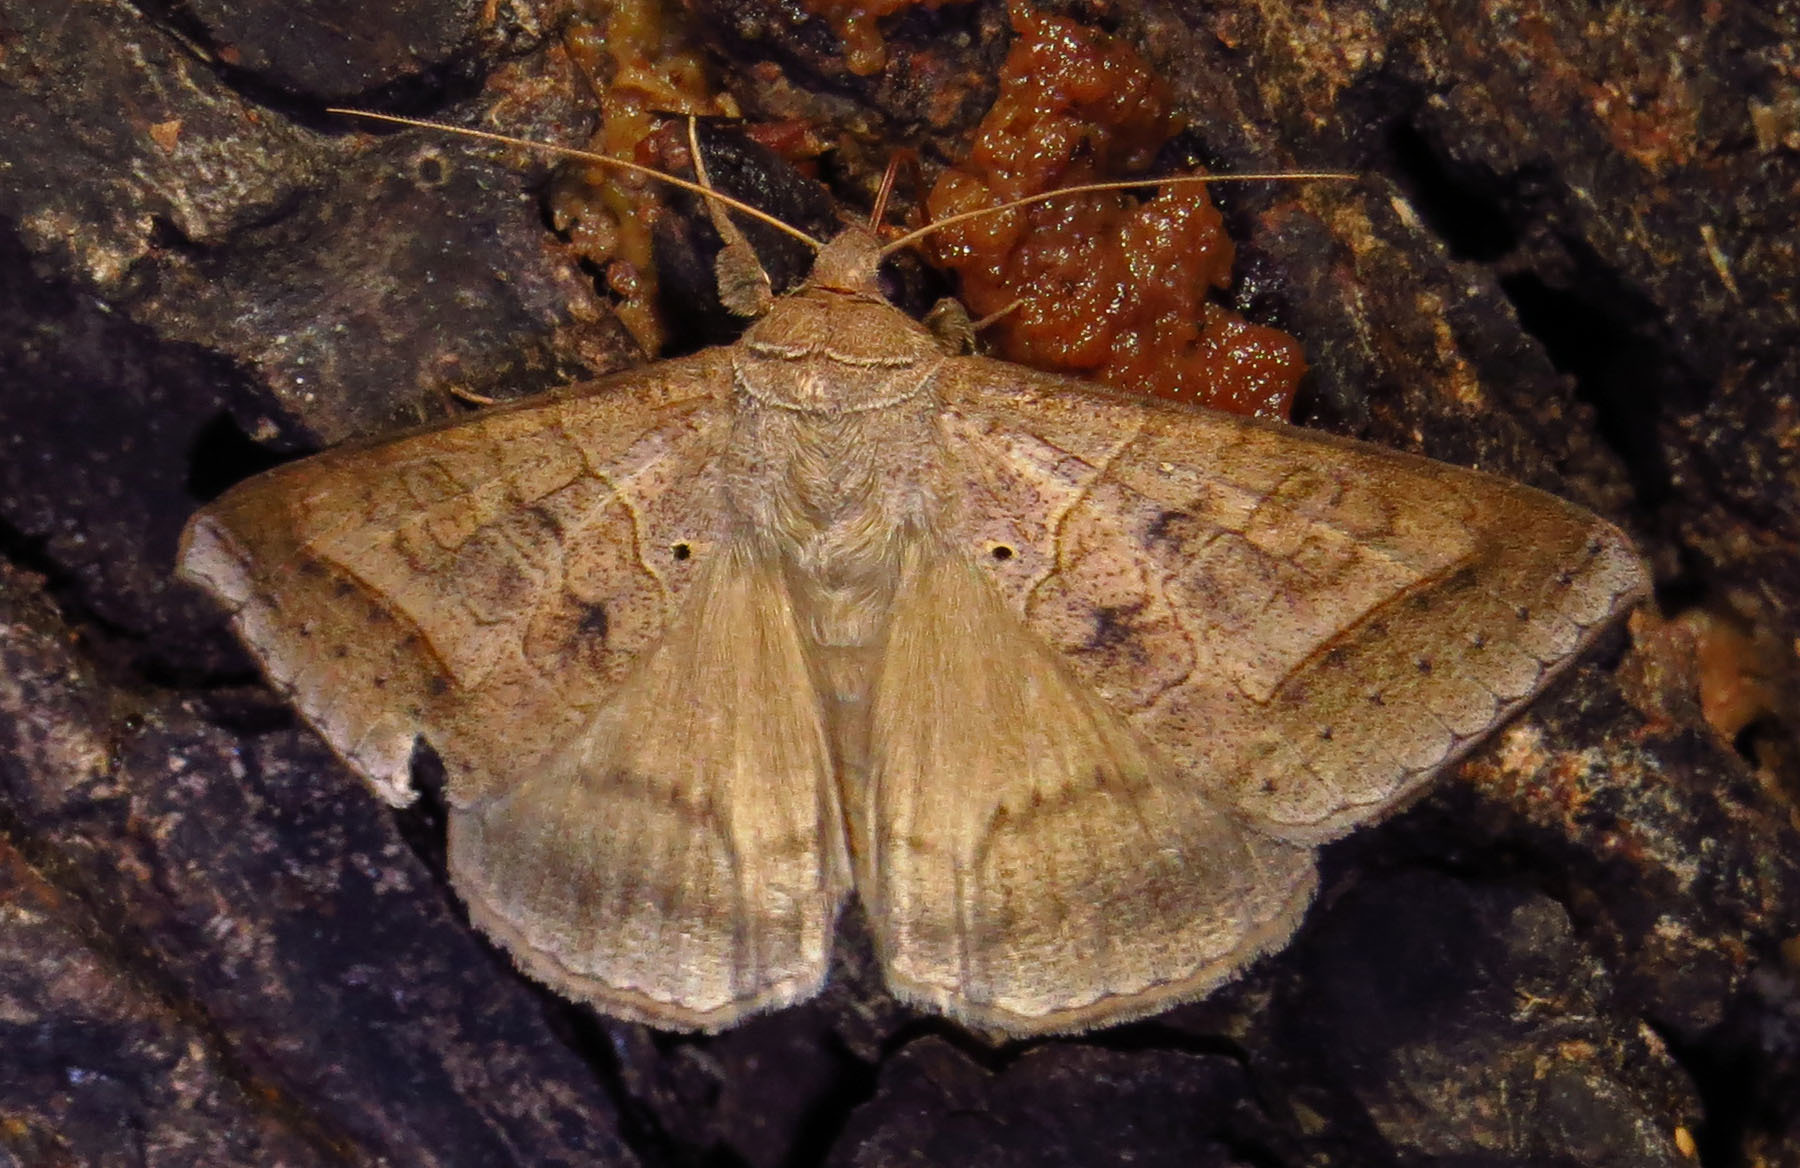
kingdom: Animalia
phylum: Arthropoda
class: Insecta
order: Lepidoptera
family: Erebidae
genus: Mocis
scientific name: Mocis marcida
